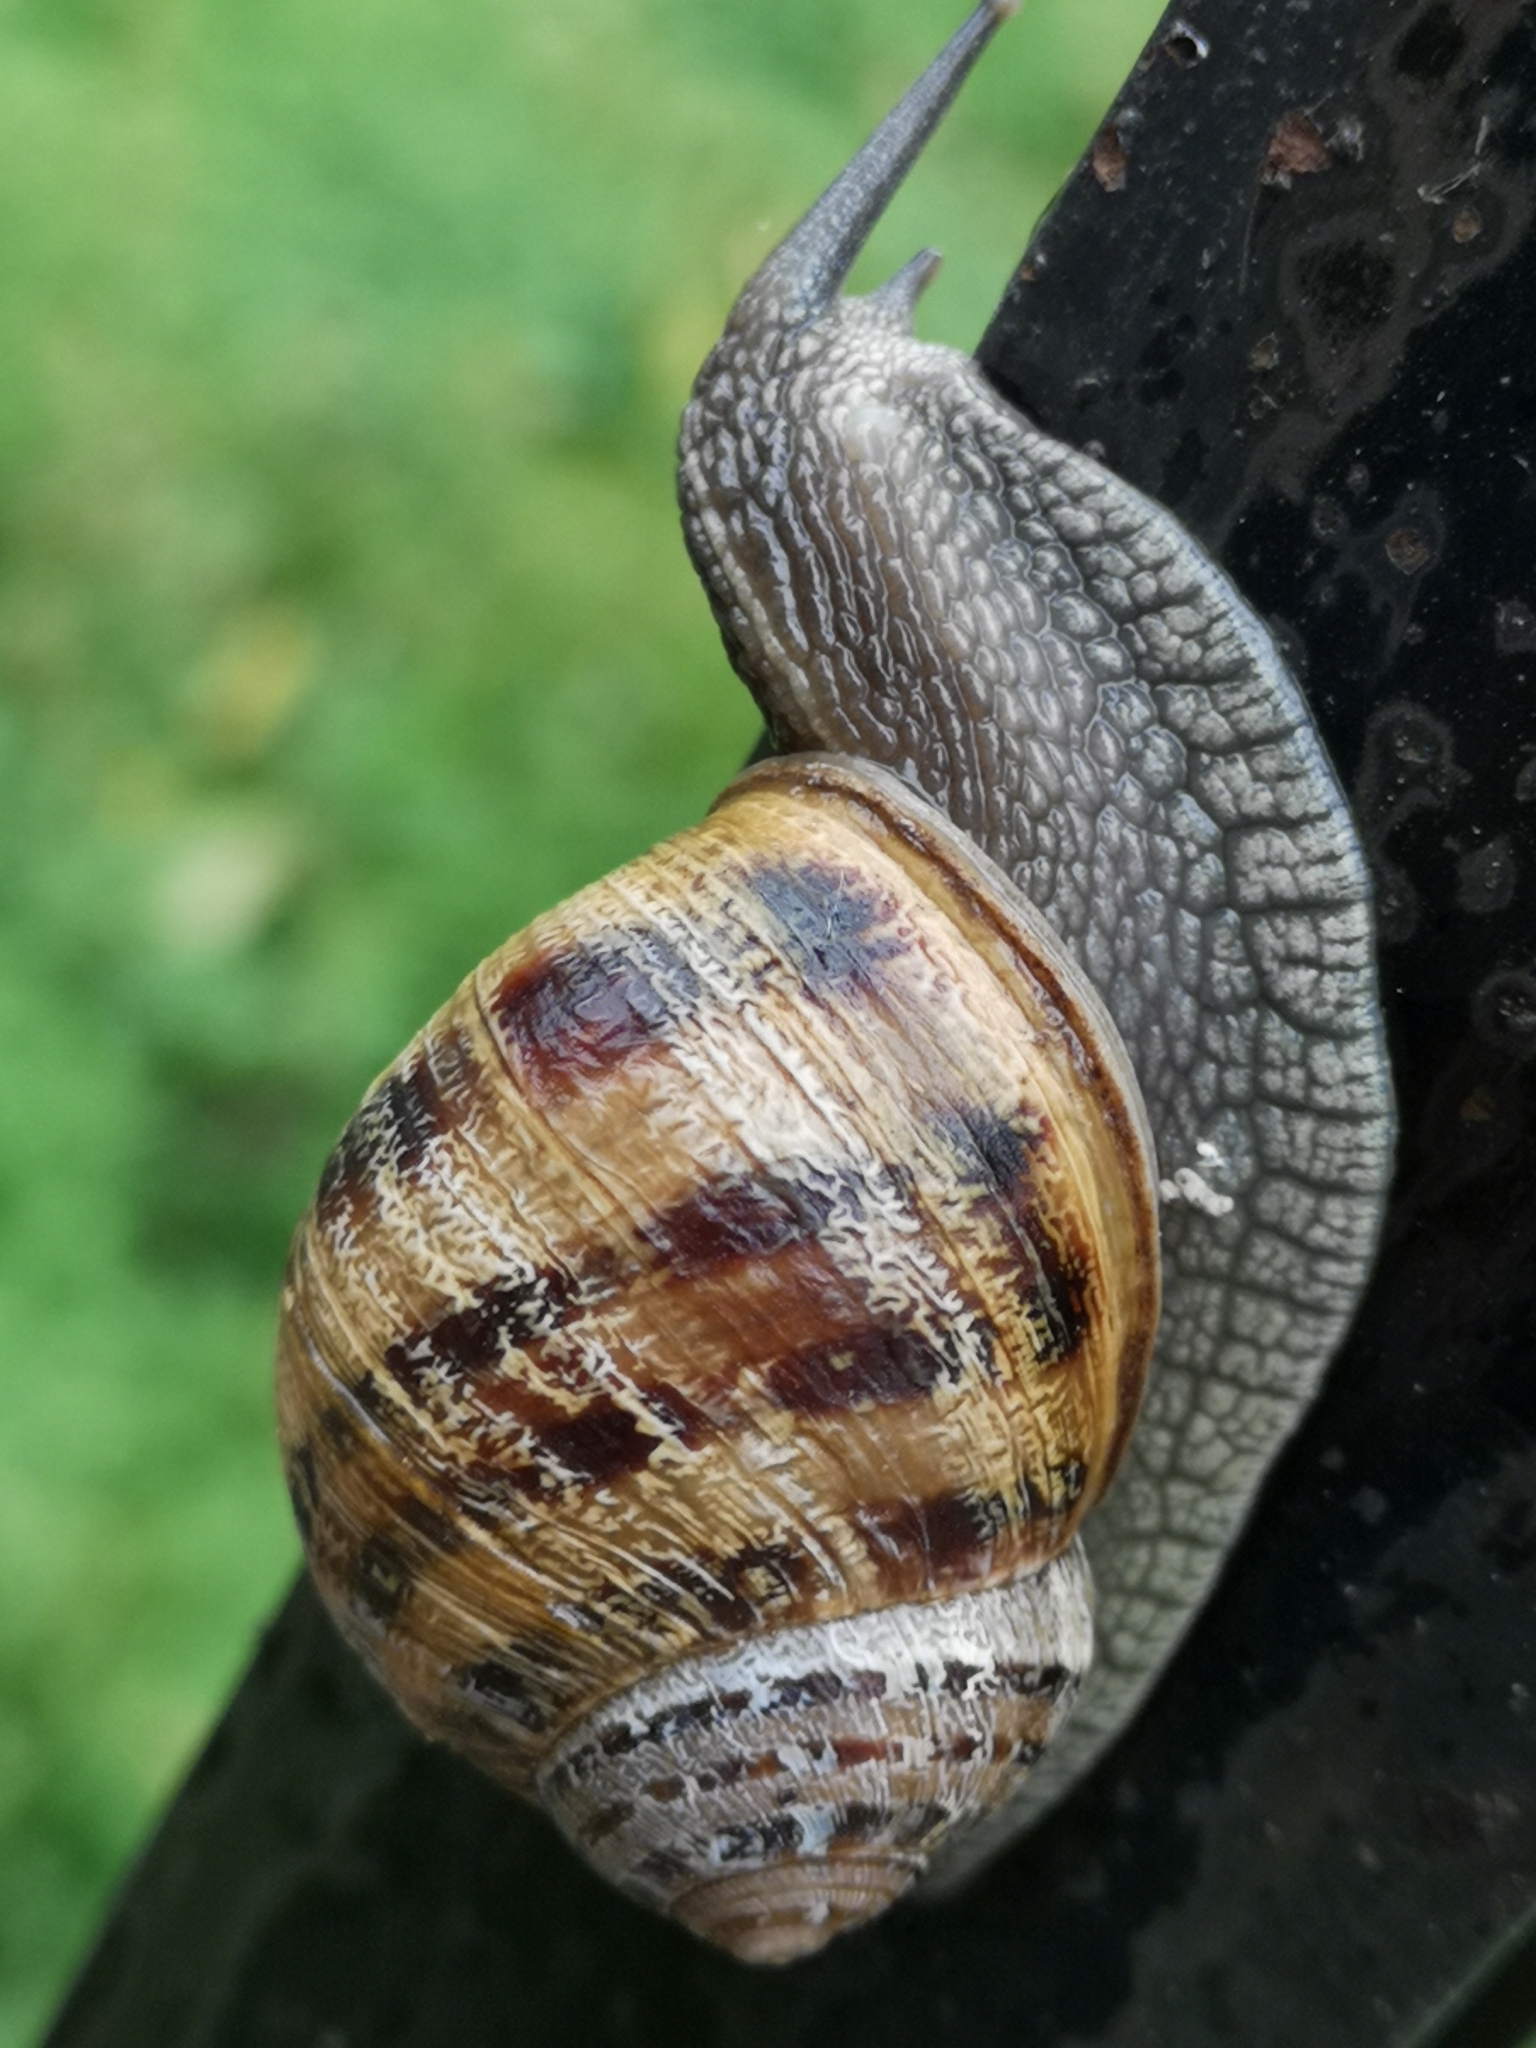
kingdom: Animalia
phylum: Mollusca
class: Gastropoda
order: Stylommatophora
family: Helicidae
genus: Cornu
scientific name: Cornu aspersum
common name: Brown garden snail
